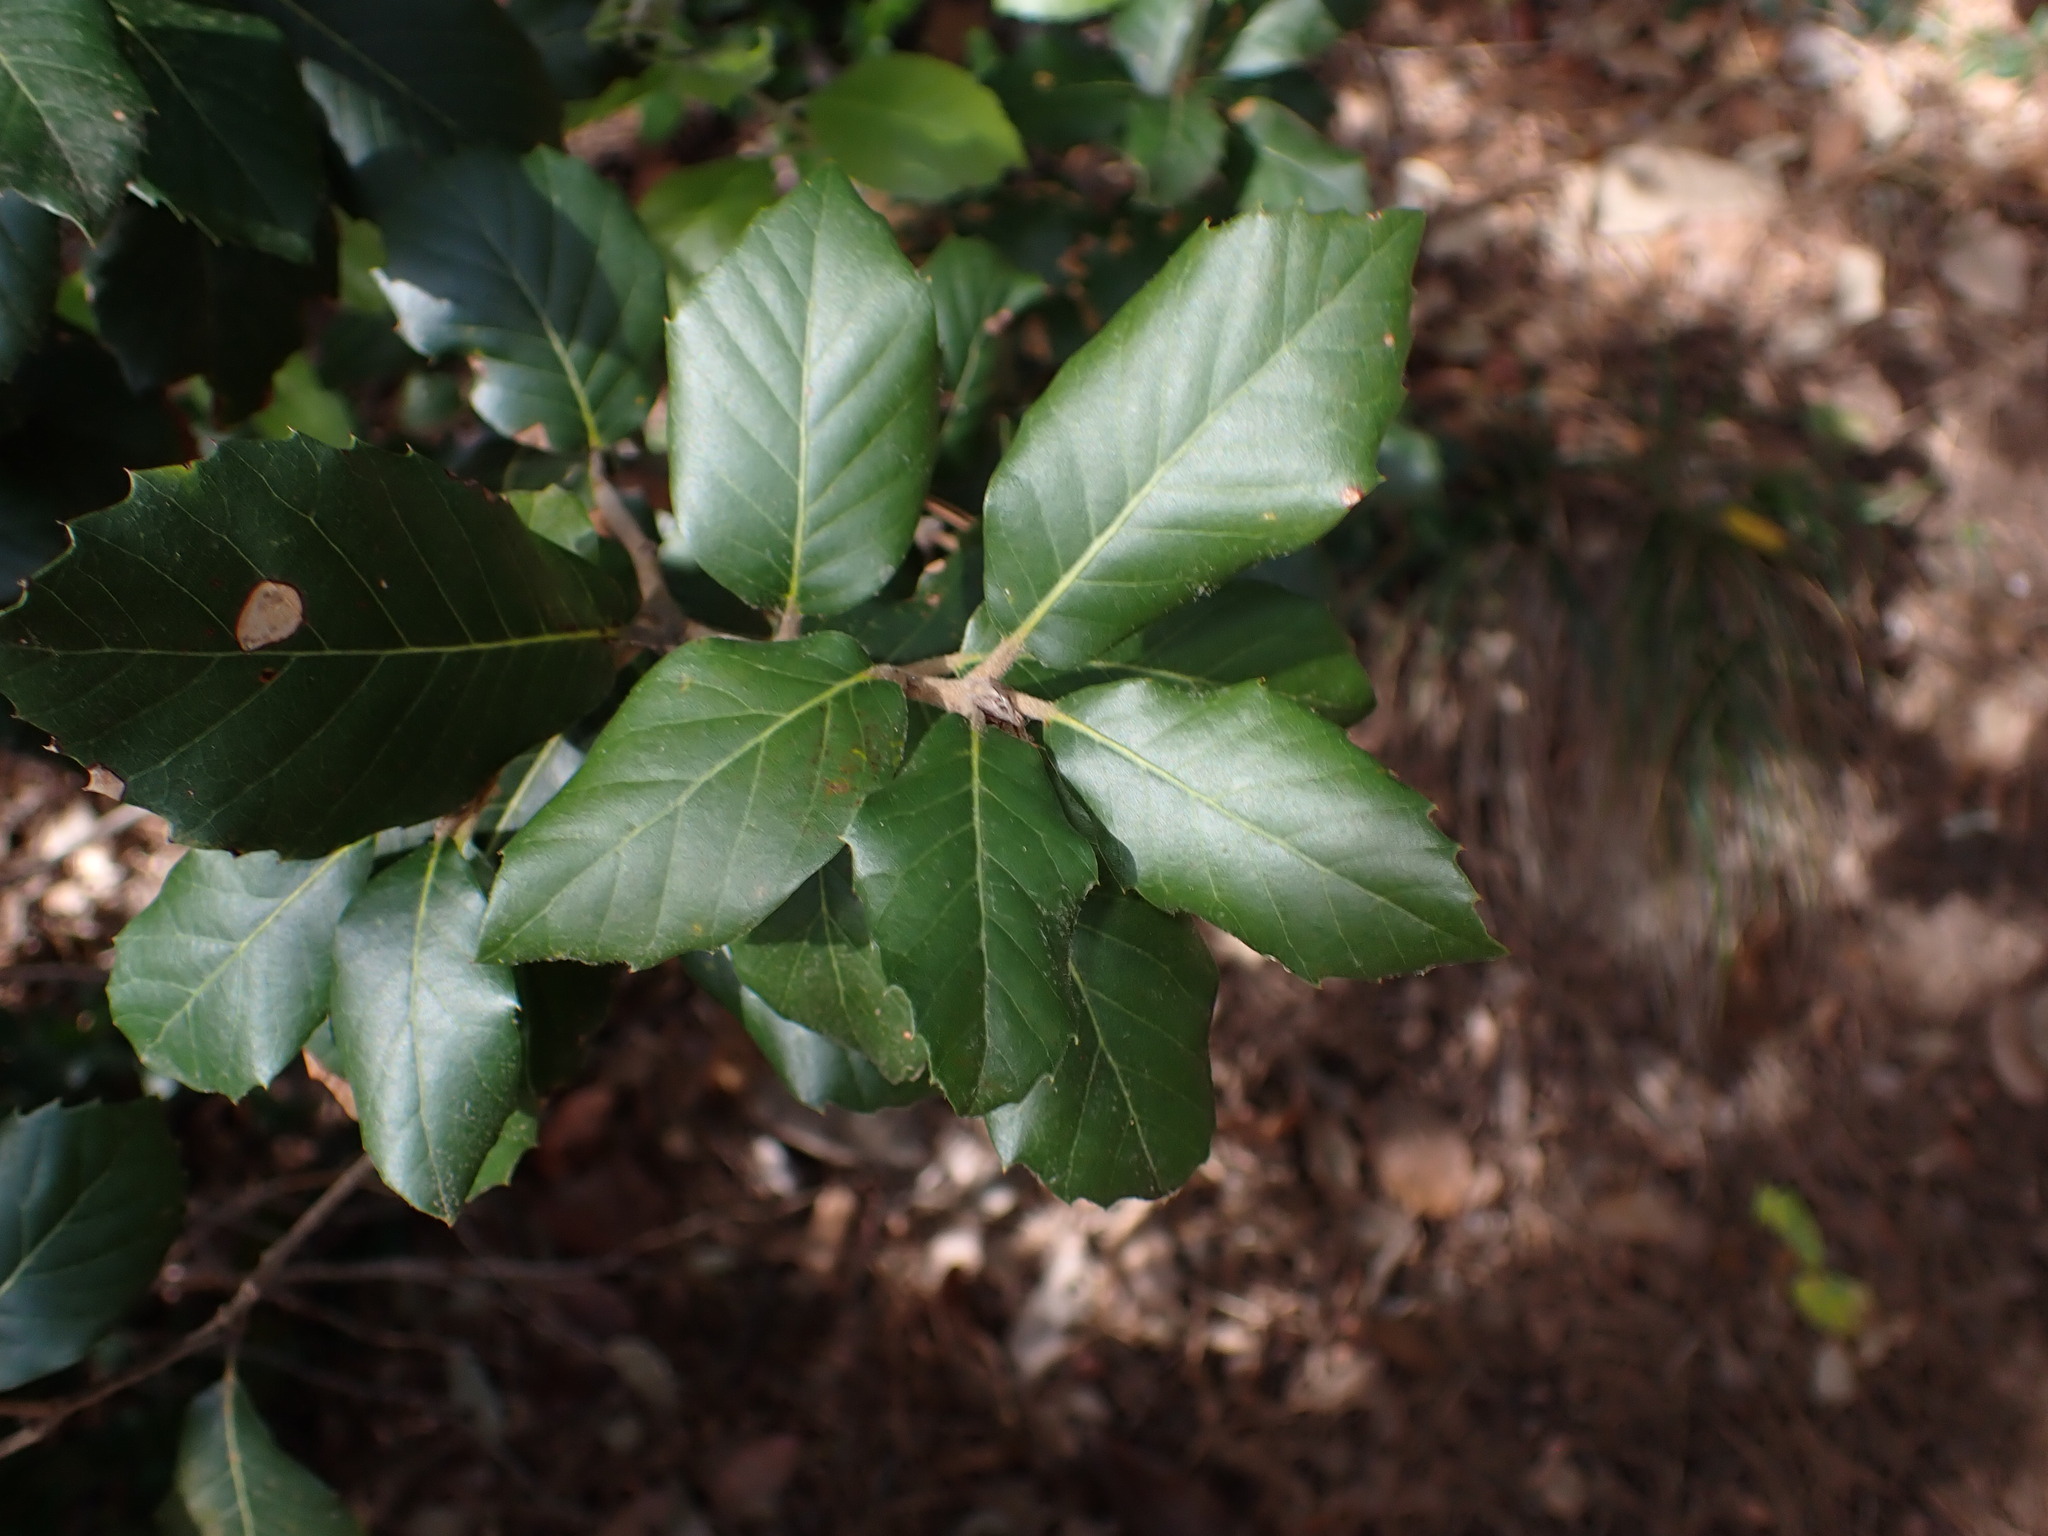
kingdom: Plantae
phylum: Tracheophyta
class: Magnoliopsida
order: Fagales
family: Fagaceae
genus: Quercus
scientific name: Quercus ilex
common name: Evergreen oak
